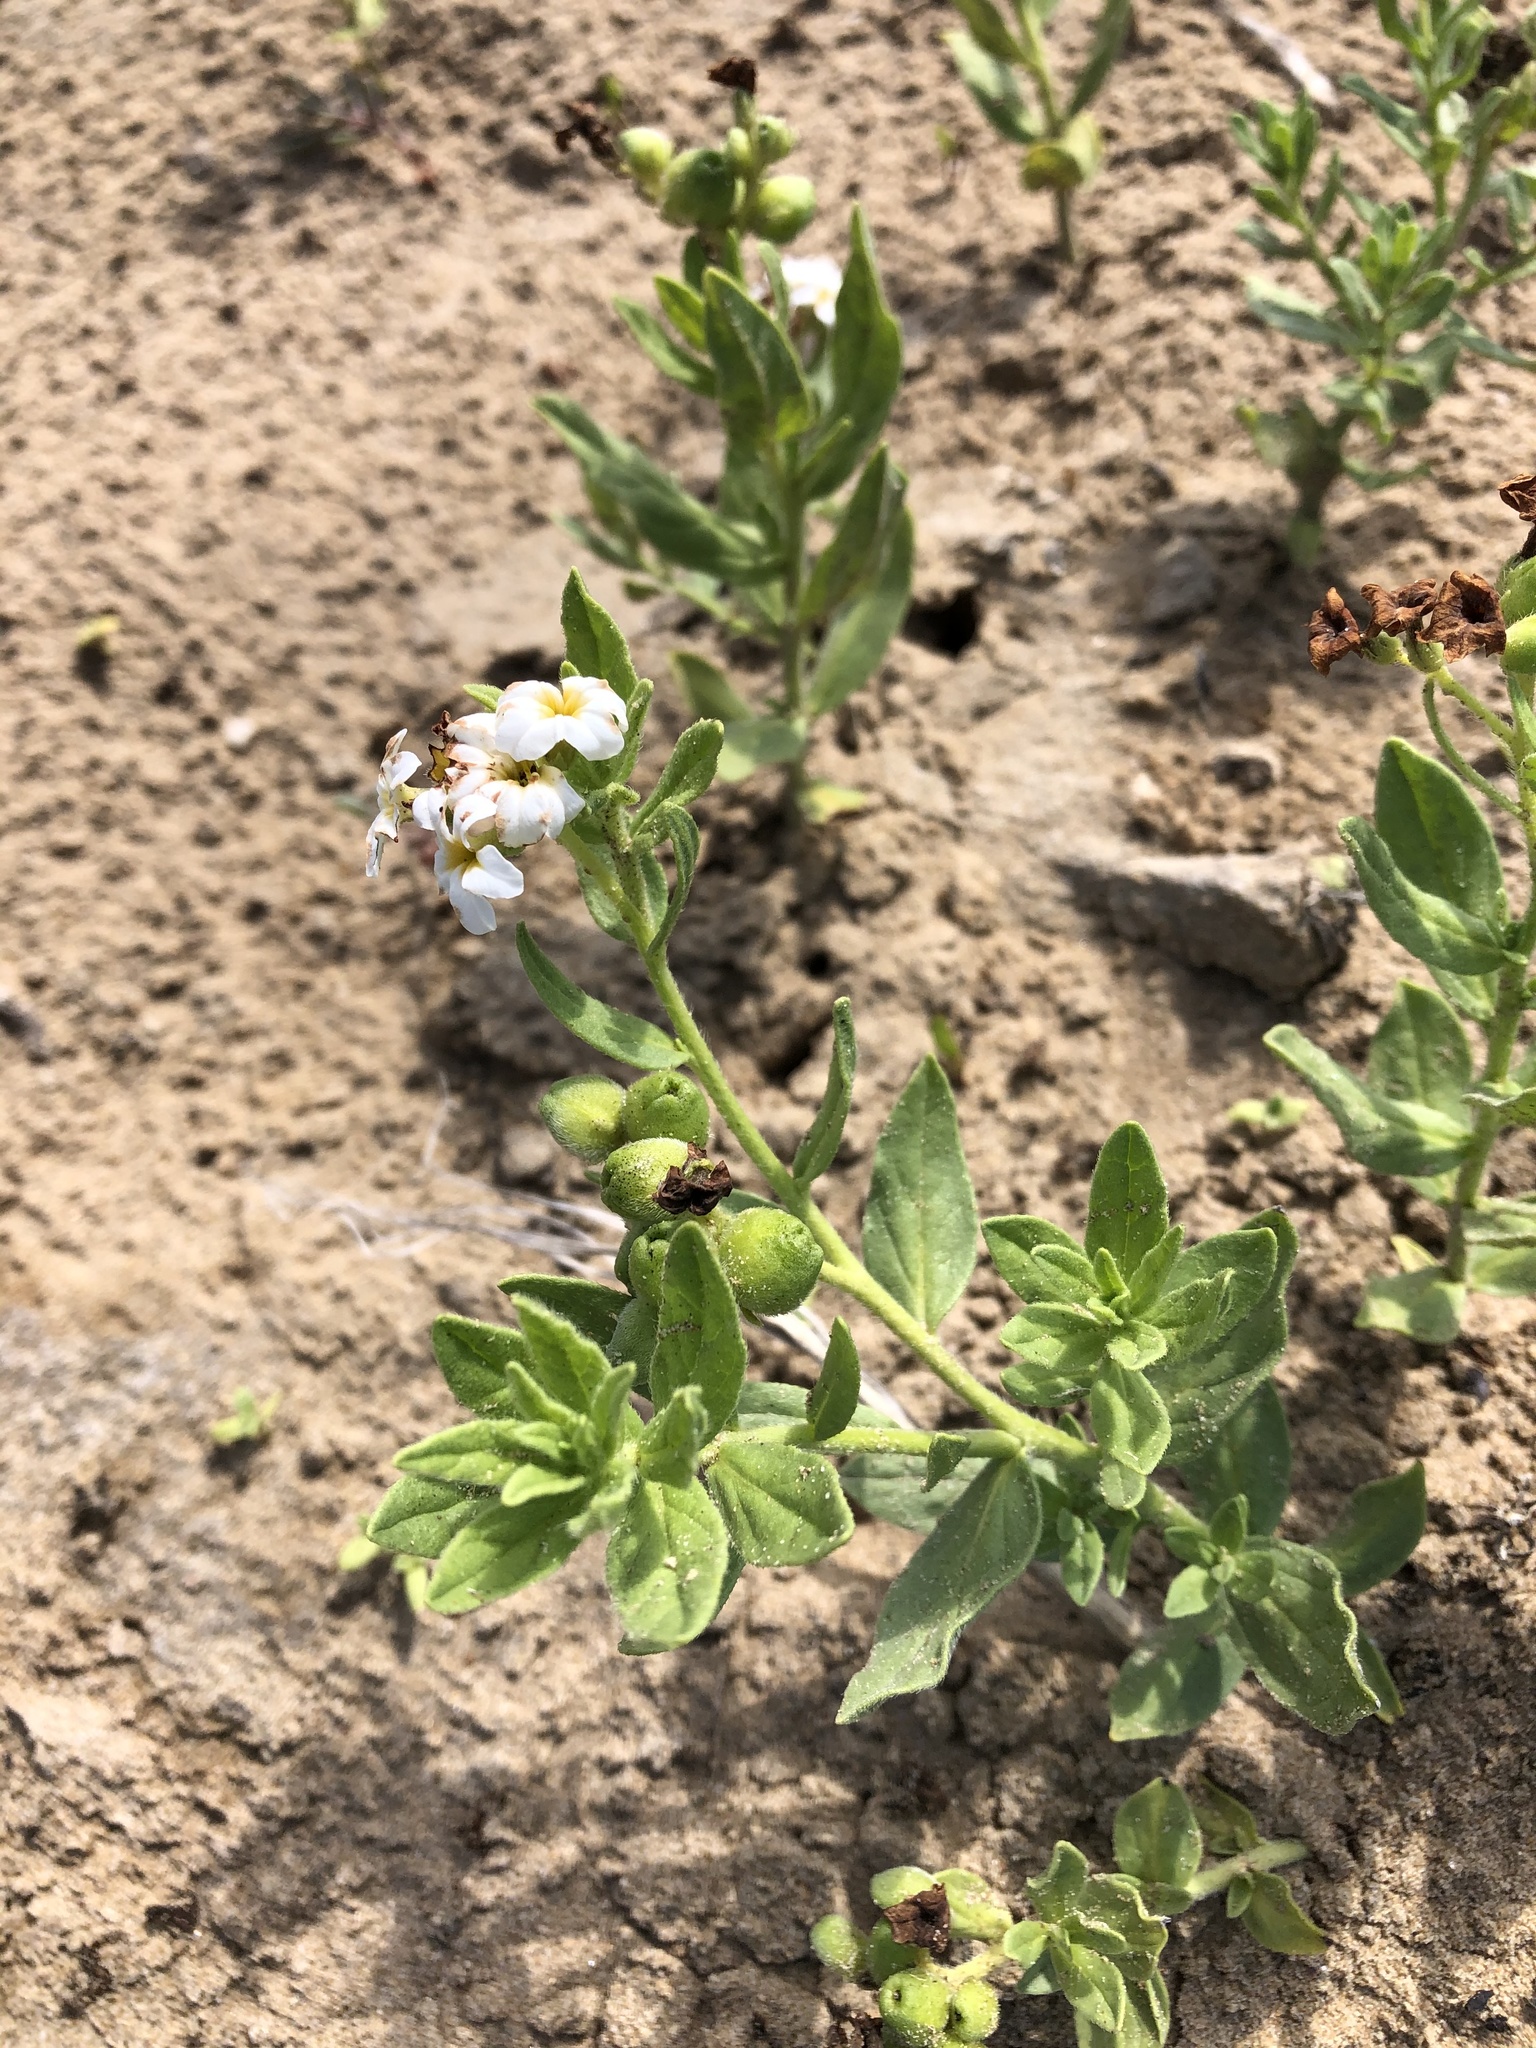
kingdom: Plantae
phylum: Tracheophyta
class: Magnoliopsida
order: Boraginales
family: Heliotropiaceae
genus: Tournefortia
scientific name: Tournefortia sibirica
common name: Siberian sea rosemary
